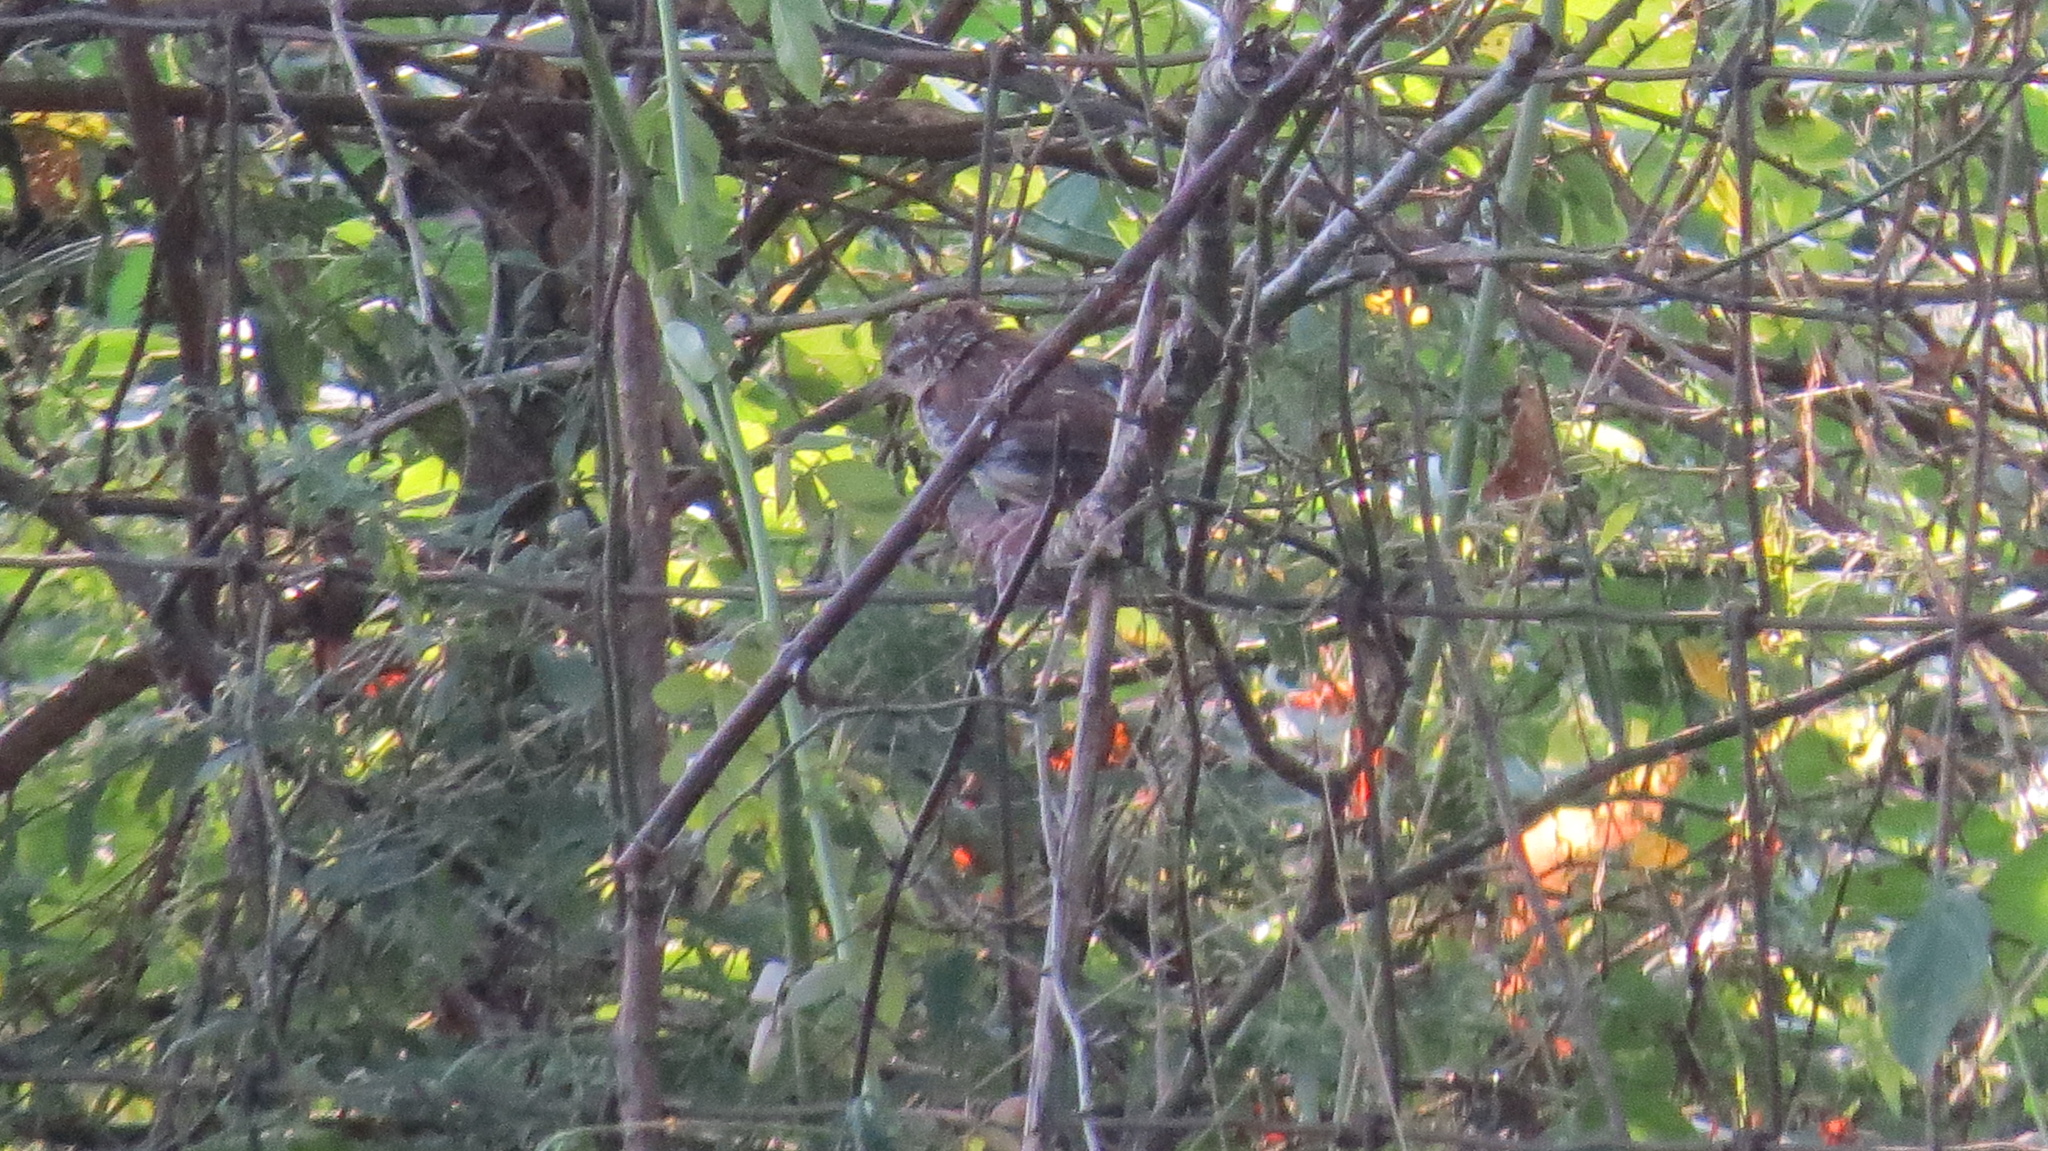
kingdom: Animalia
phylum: Chordata
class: Aves
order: Passeriformes
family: Troglodytidae
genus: Thryothorus
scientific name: Thryothorus ludovicianus
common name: Carolina wren
